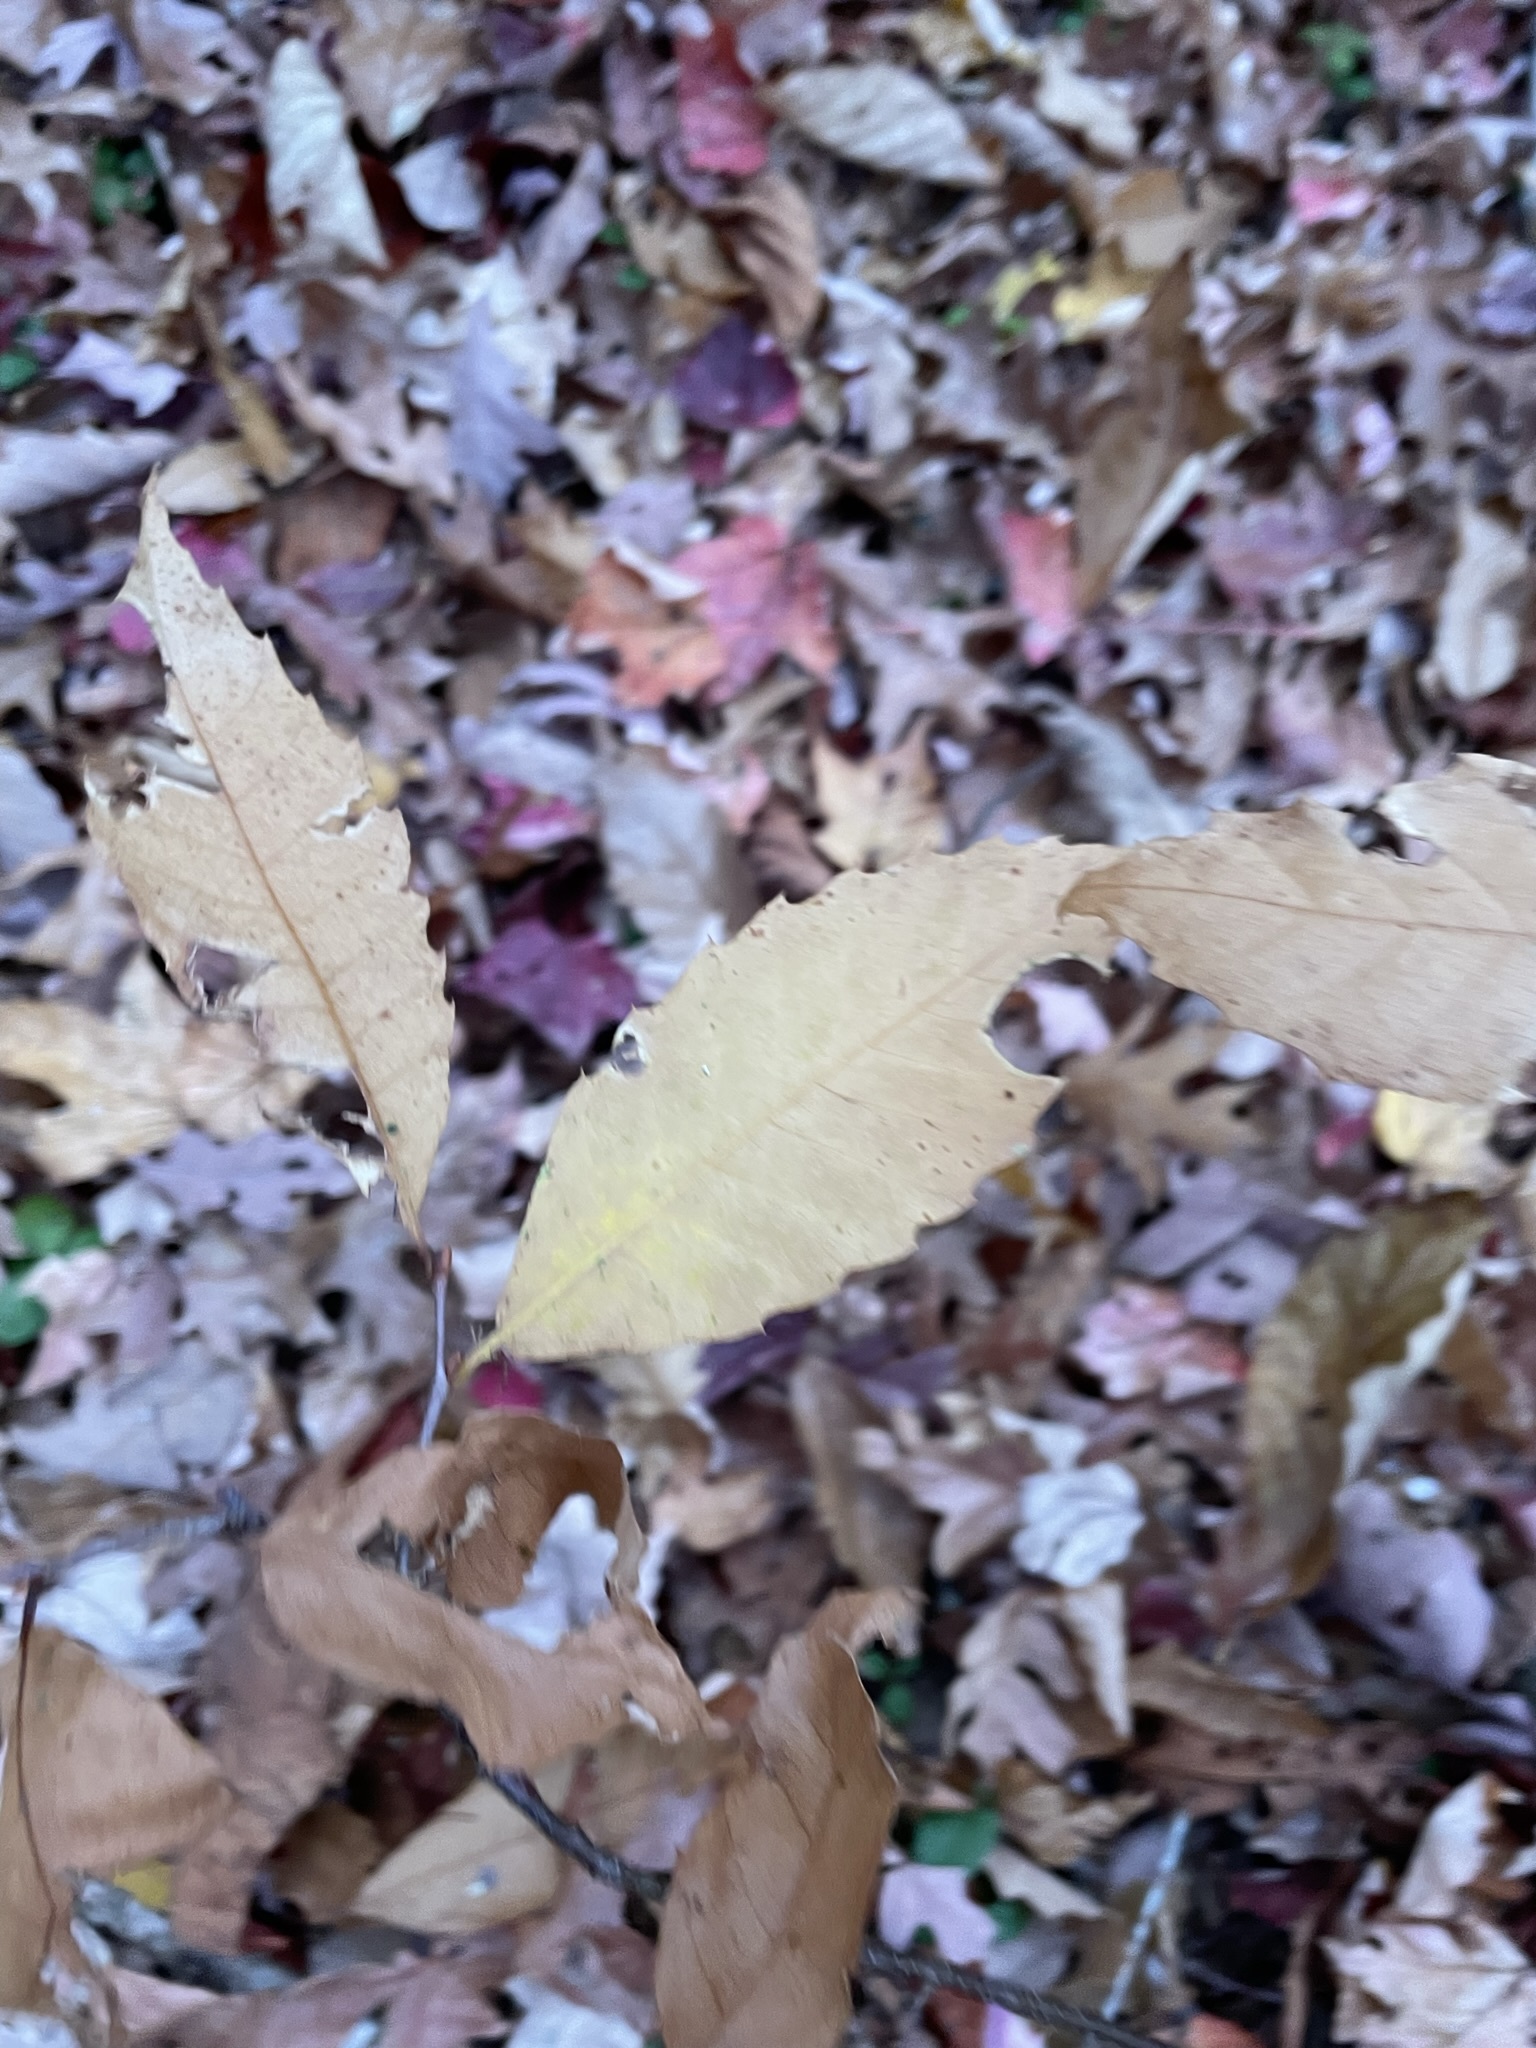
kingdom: Plantae
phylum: Tracheophyta
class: Magnoliopsida
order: Fagales
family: Fagaceae
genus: Castanea
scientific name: Castanea dentata
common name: American chestnut
